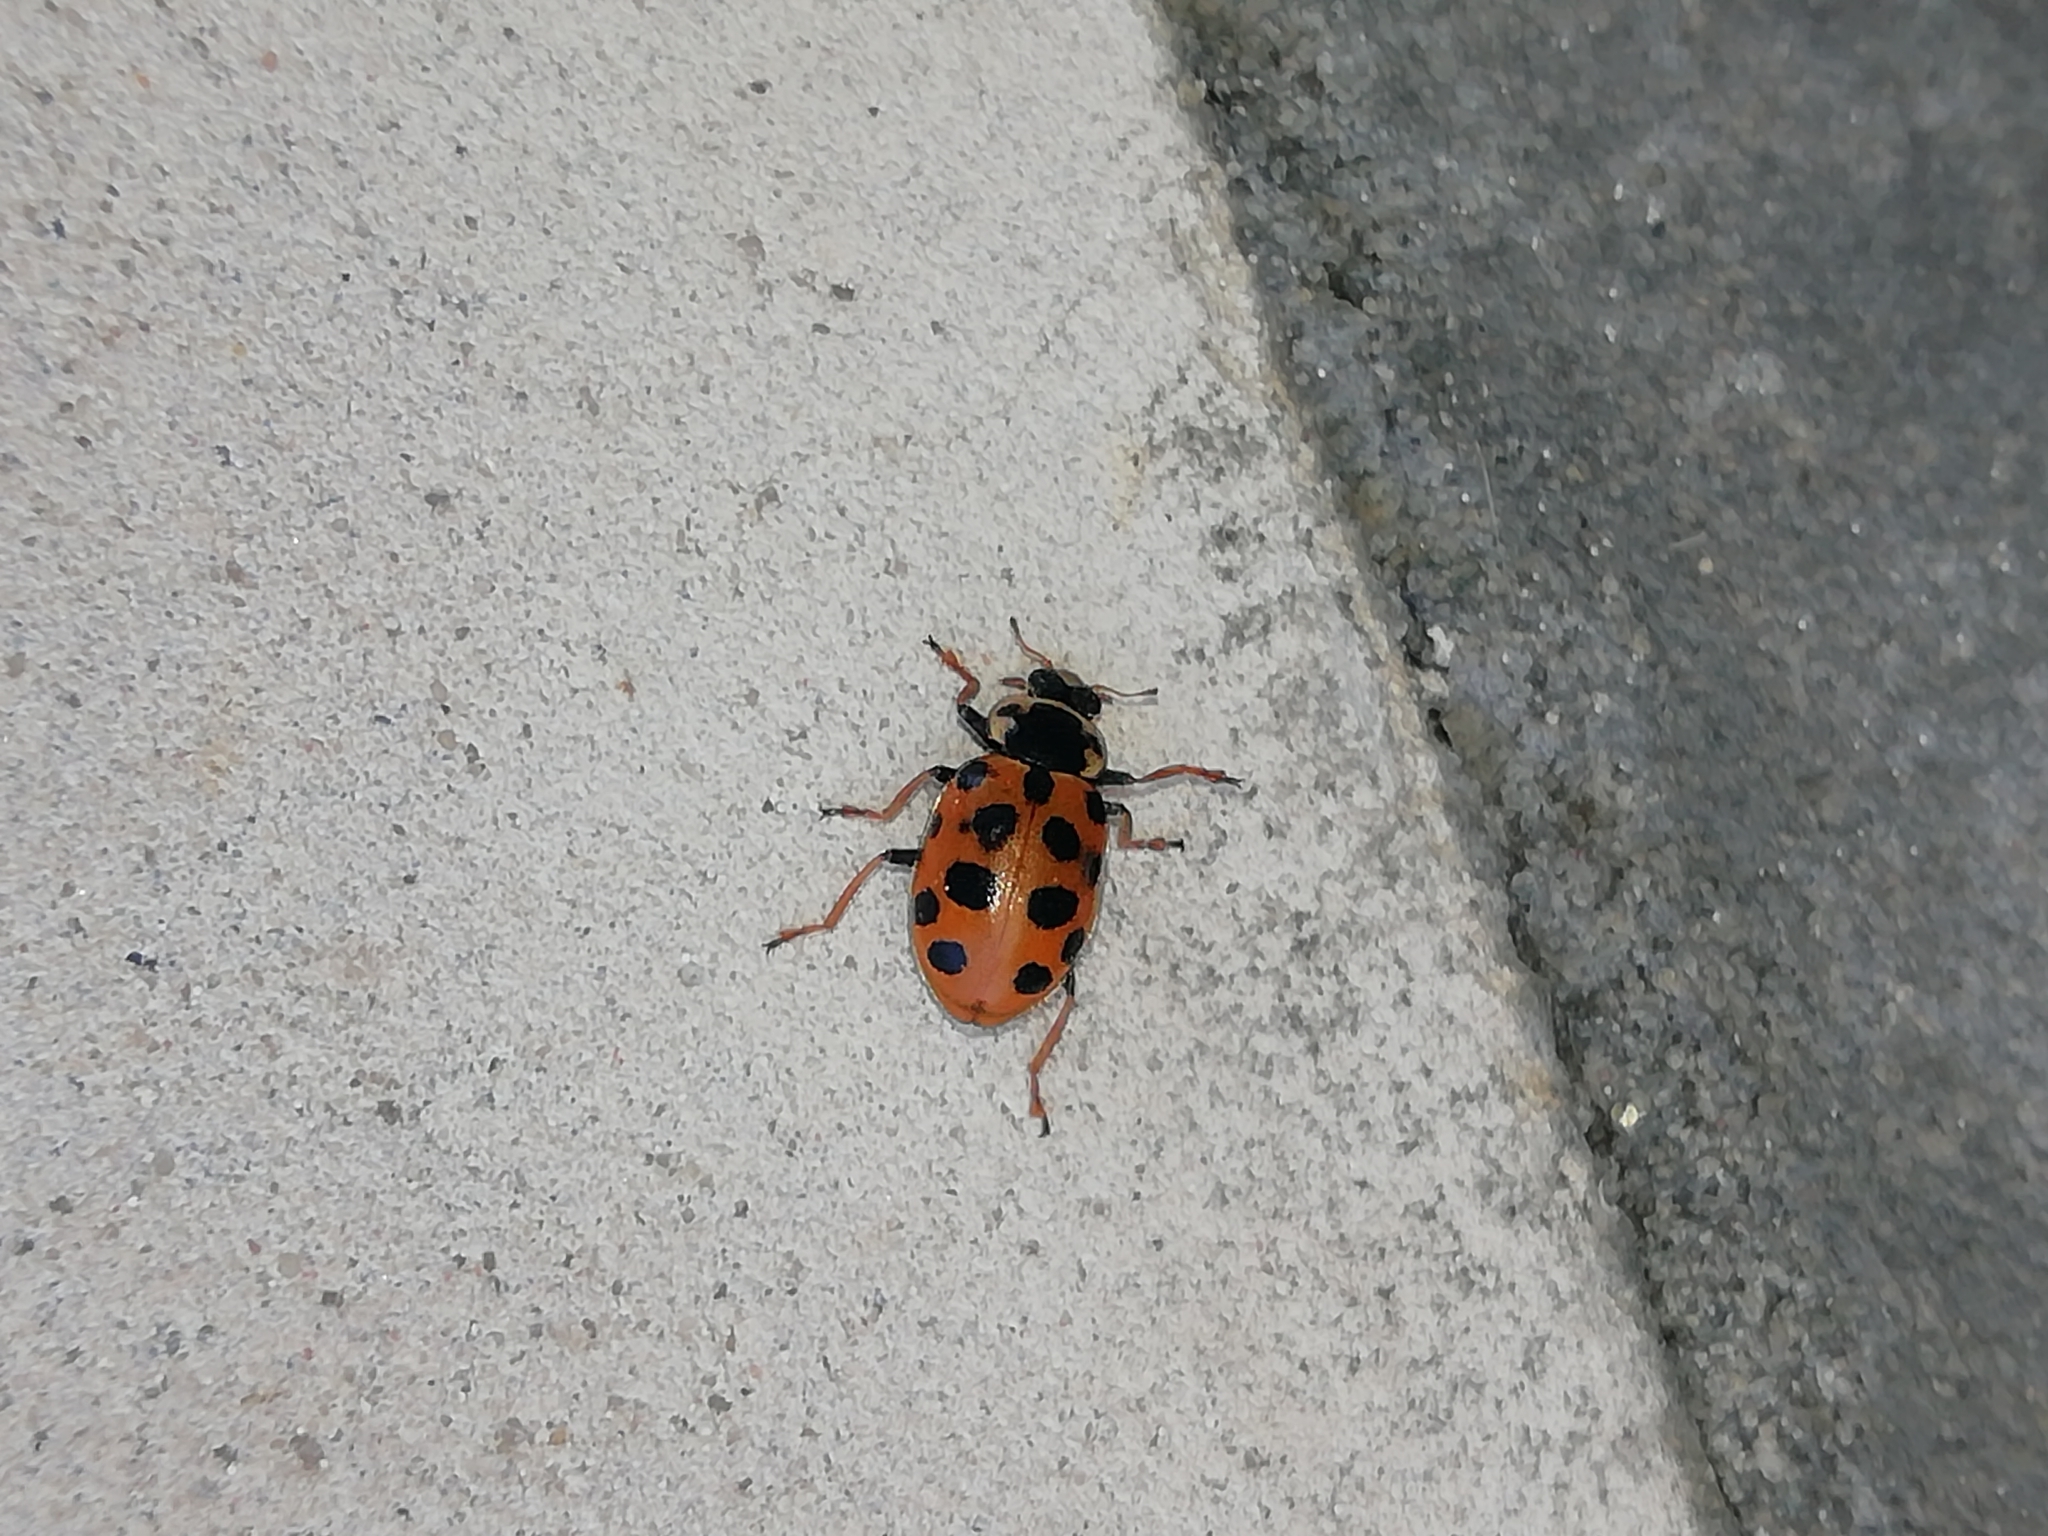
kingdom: Animalia
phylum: Arthropoda
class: Insecta
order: Coleoptera
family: Coccinellidae
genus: Hippodamia
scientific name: Hippodamia tredecimpunctata
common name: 13-spot ladybird
